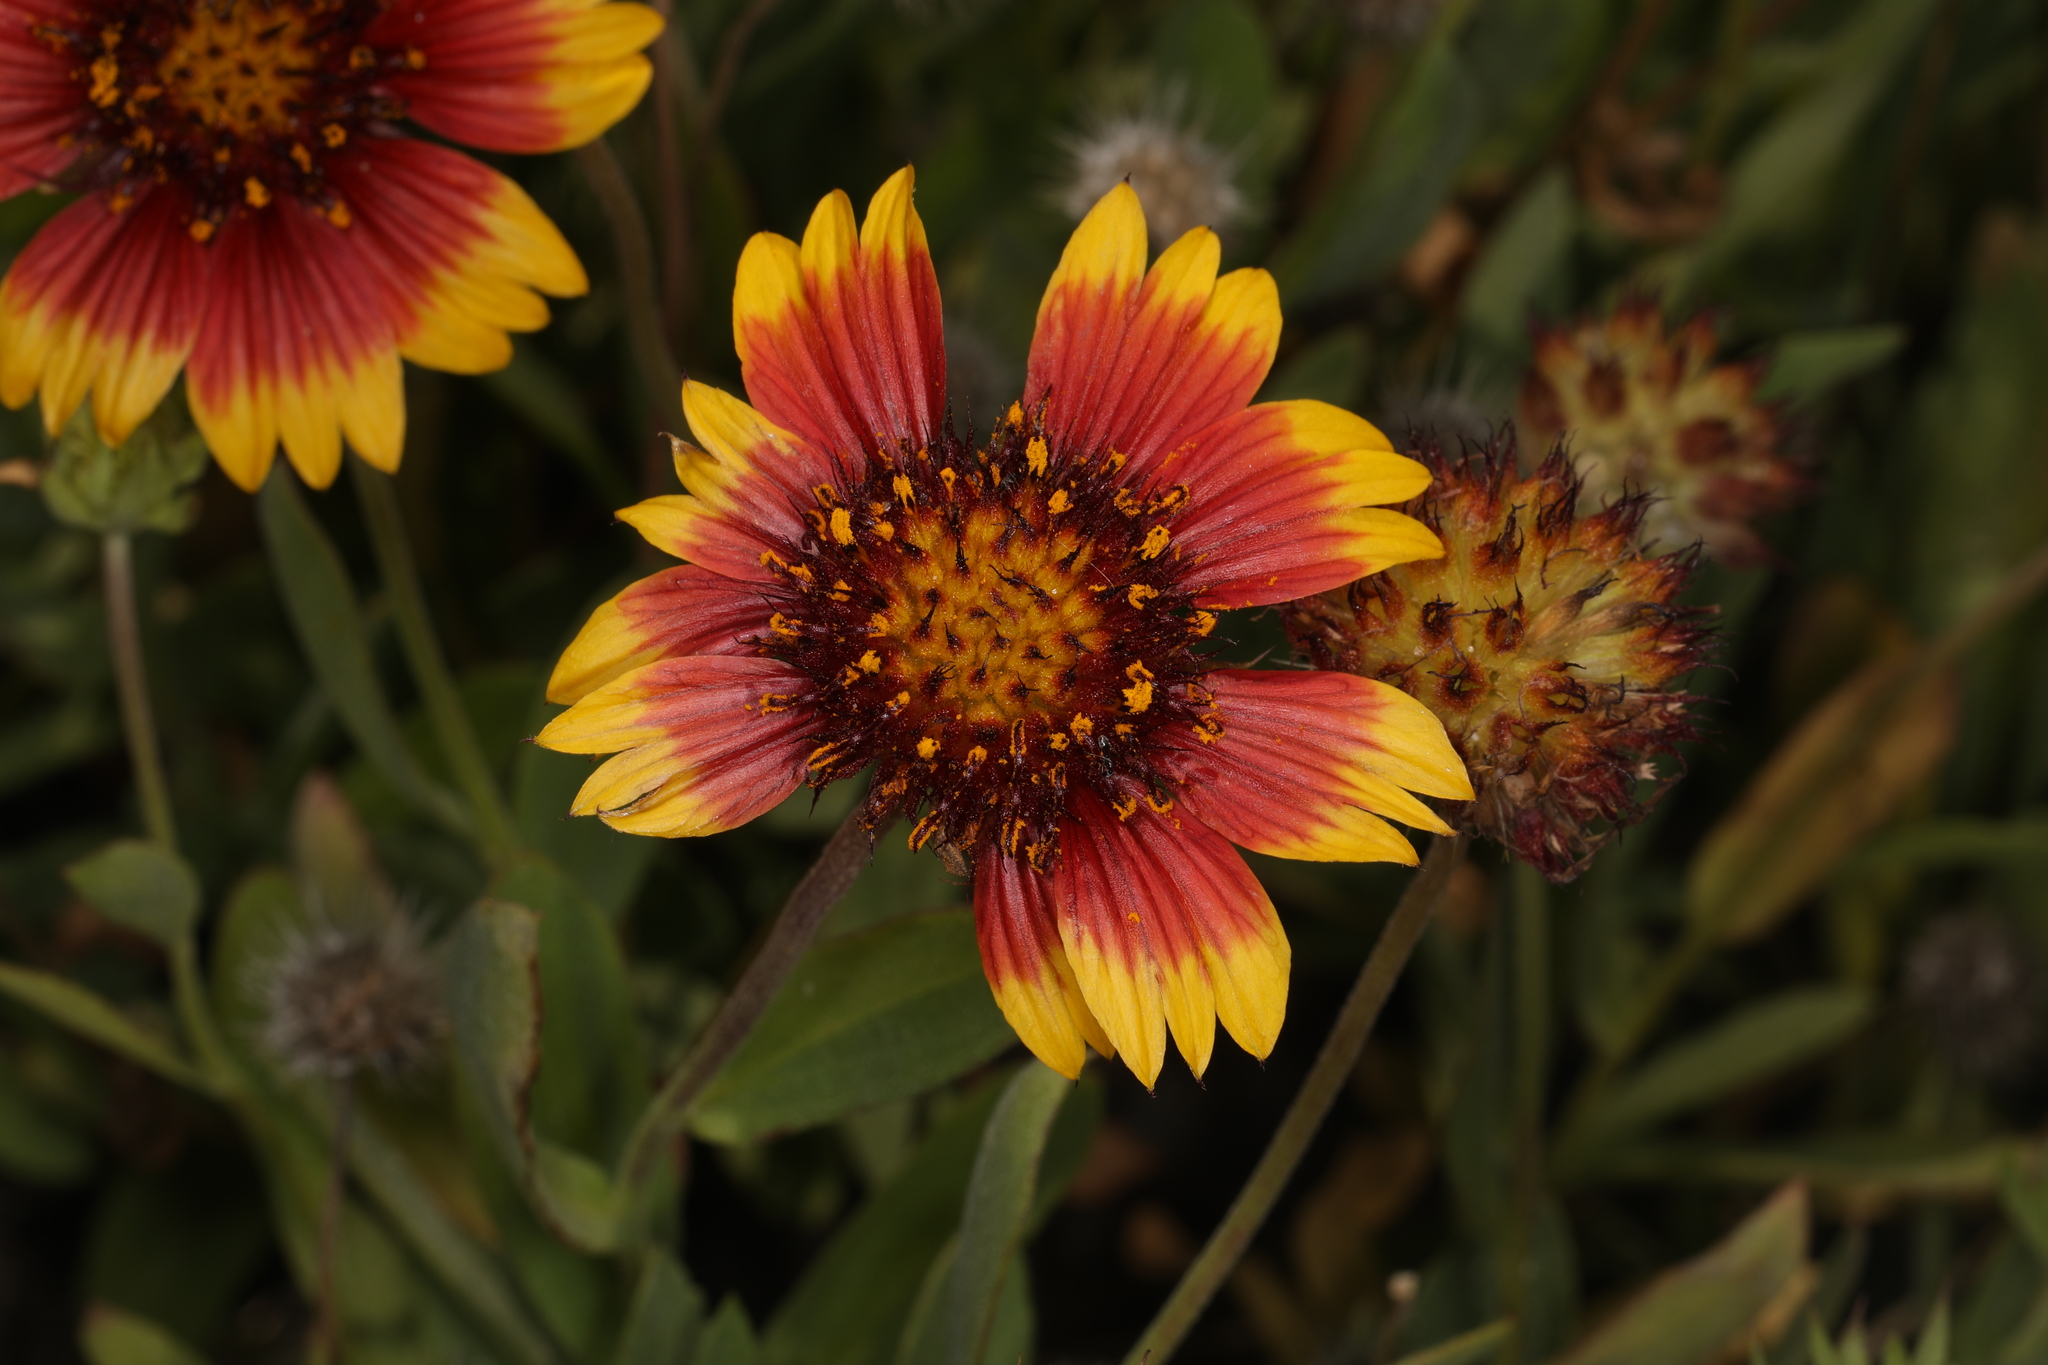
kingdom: Plantae
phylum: Tracheophyta
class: Magnoliopsida
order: Asterales
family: Asteraceae
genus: Gaillardia
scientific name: Gaillardia pulchella
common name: Firewheel
